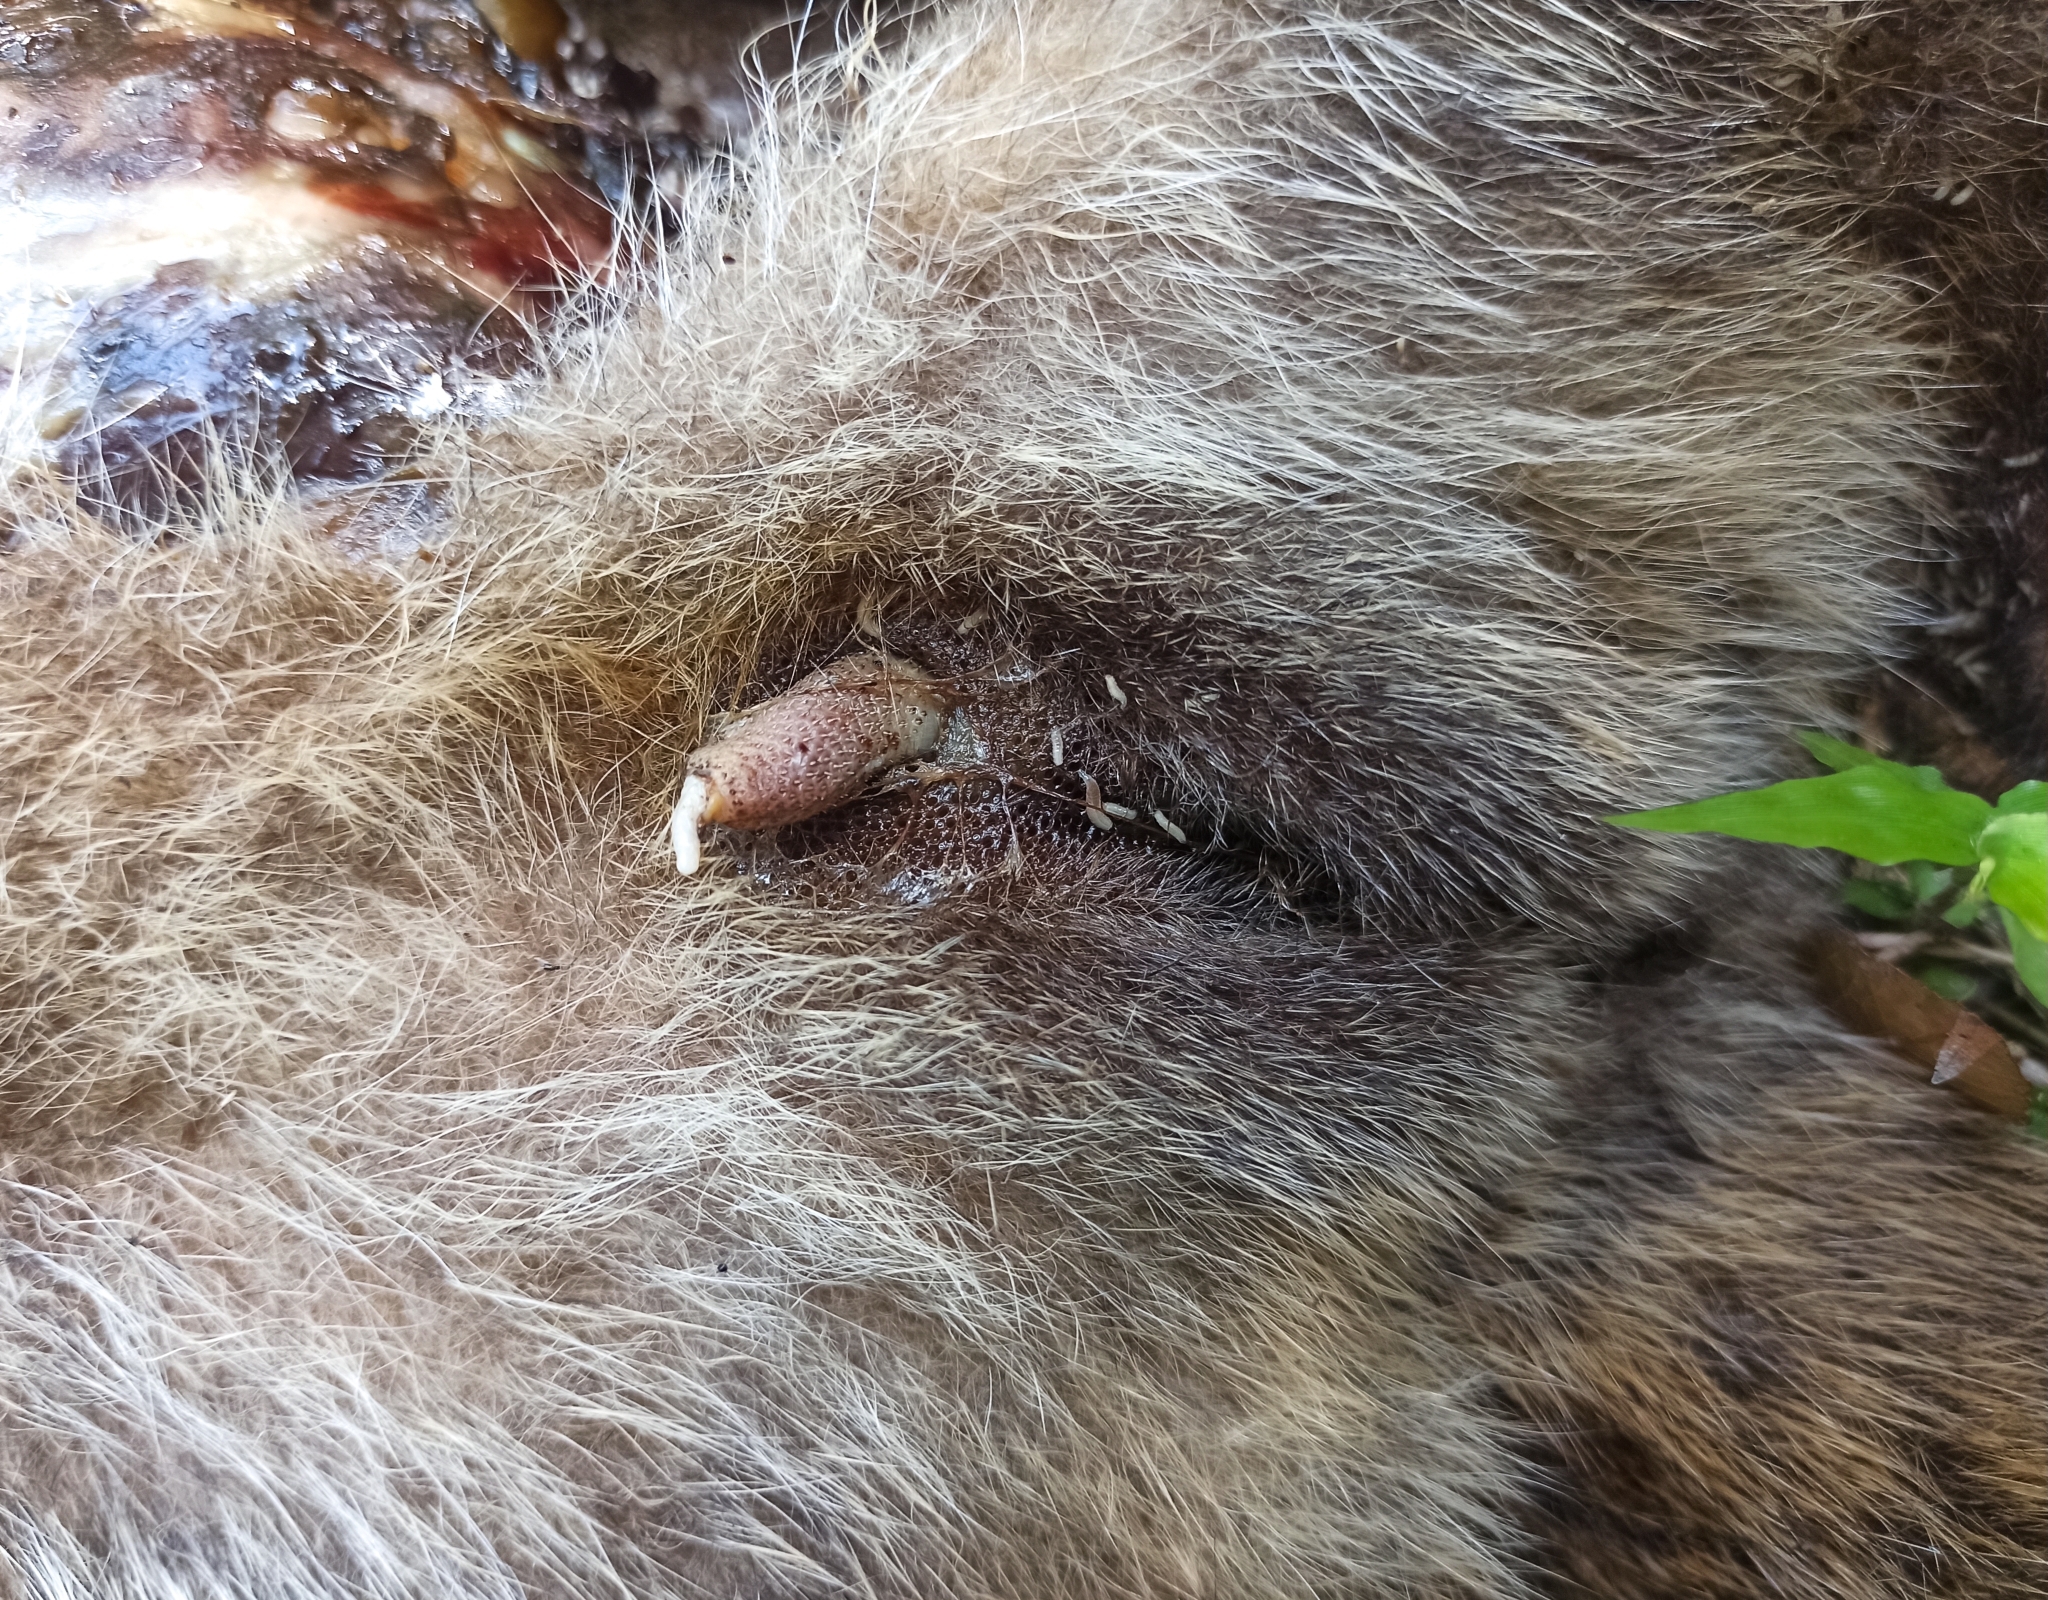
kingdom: Animalia
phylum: Chordata
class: Mammalia
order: Carnivora
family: Viverridae
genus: Paguma
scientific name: Paguma larvata
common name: Masked palm civet
